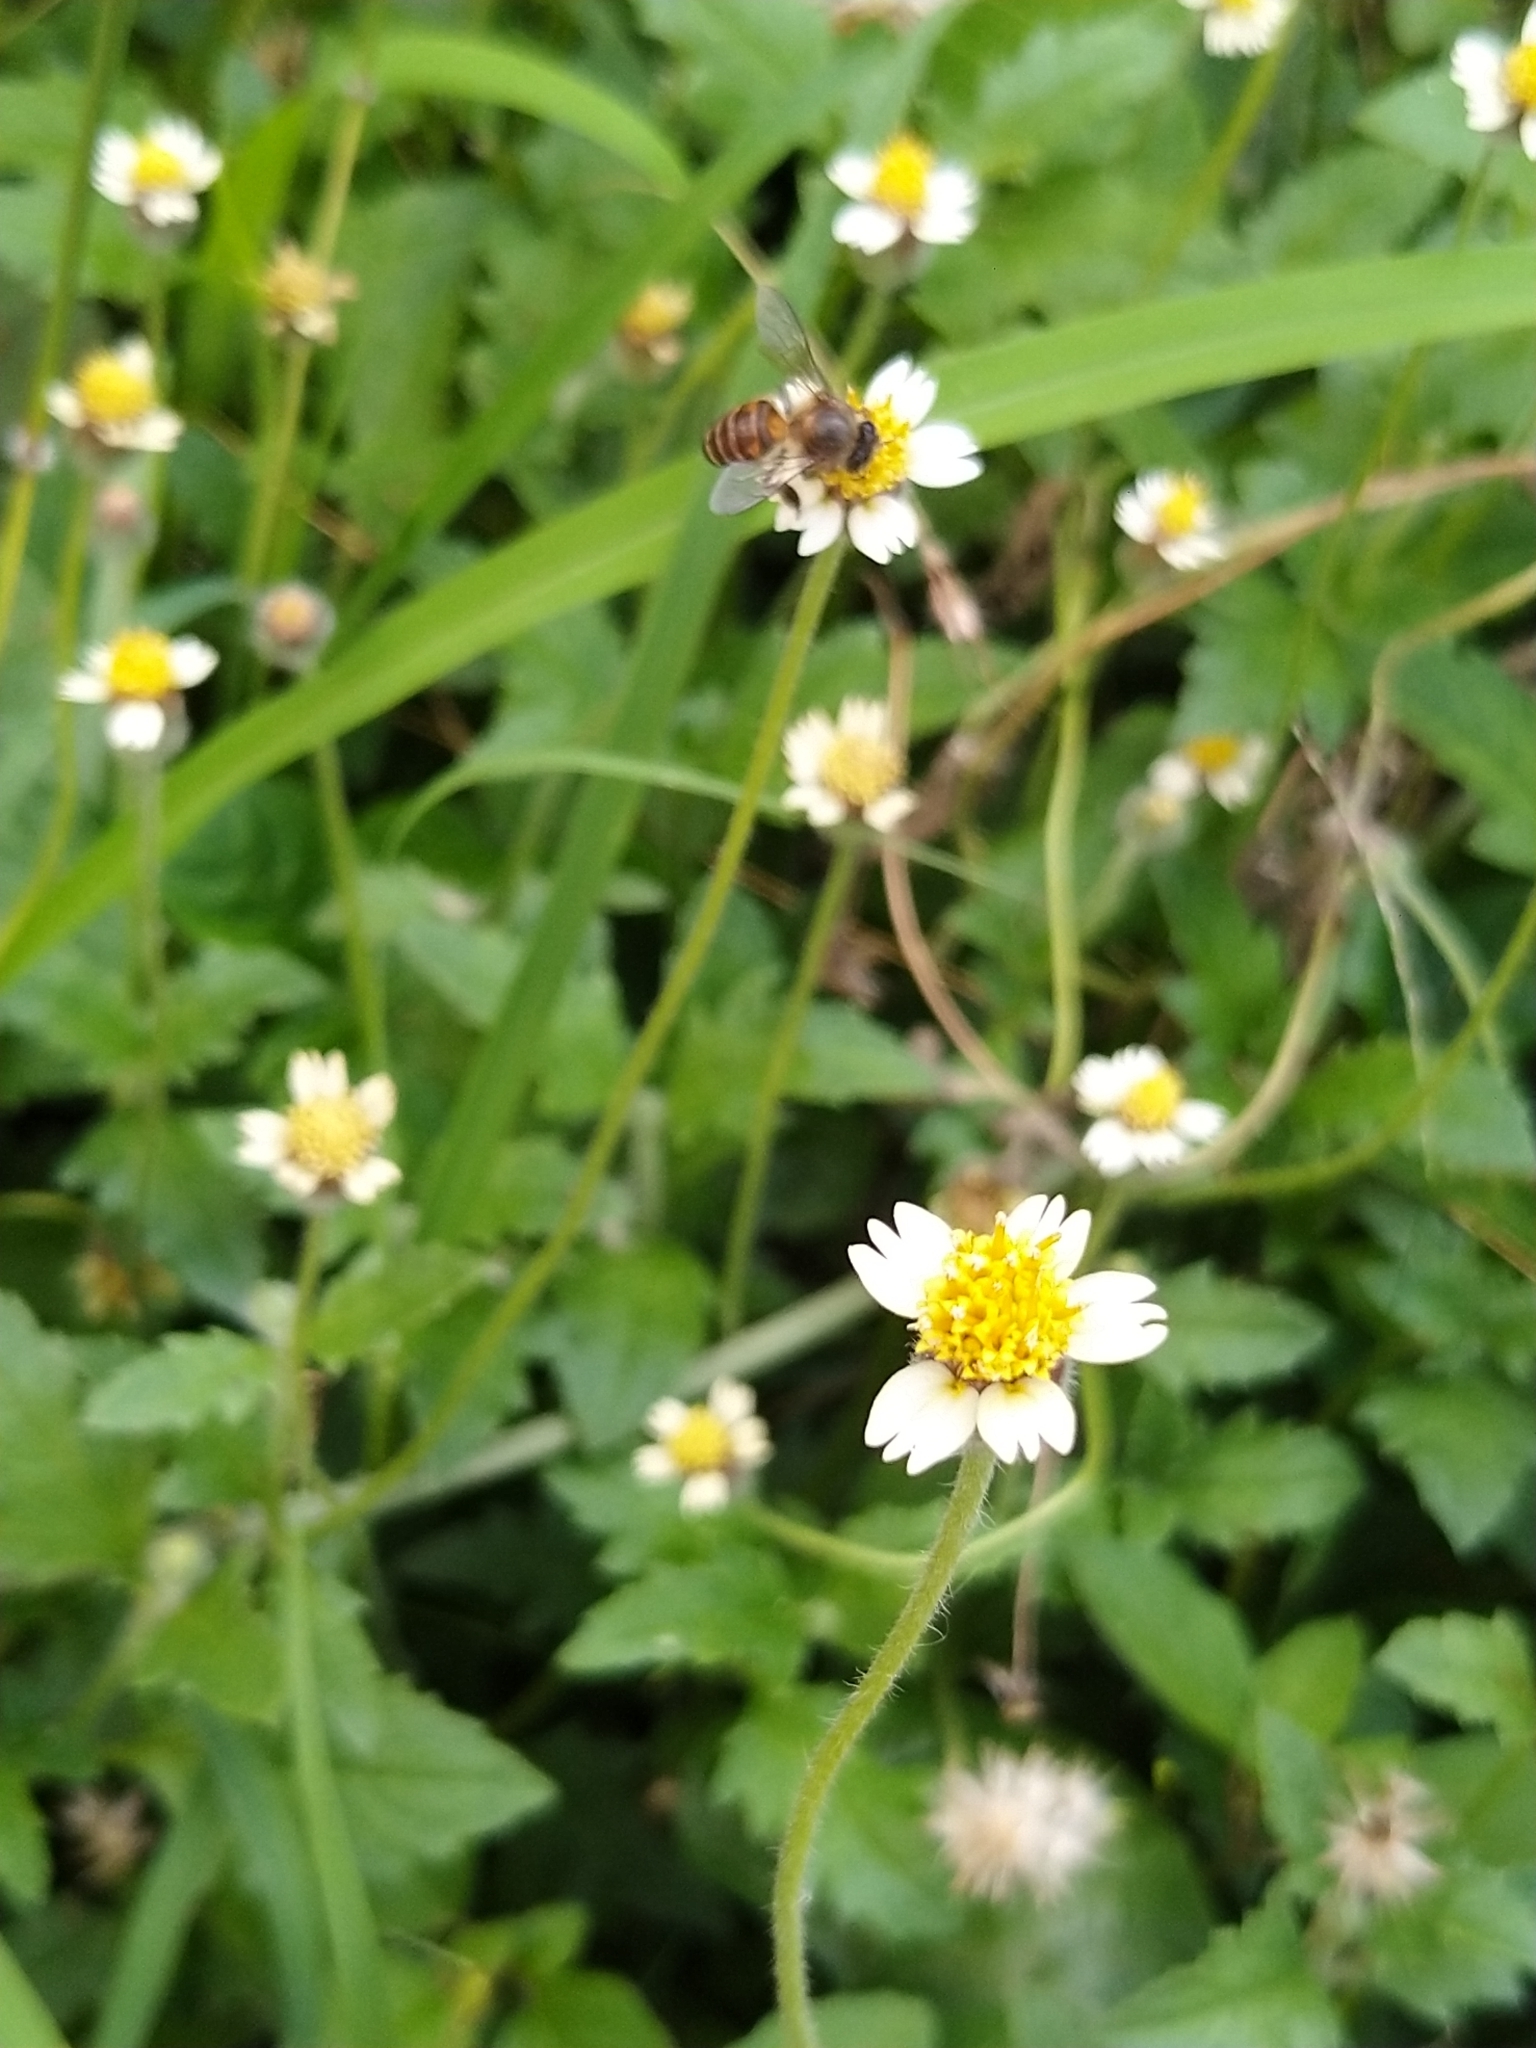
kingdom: Animalia
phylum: Arthropoda
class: Insecta
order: Hymenoptera
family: Apidae
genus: Apis
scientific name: Apis cerana
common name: Honey bee
